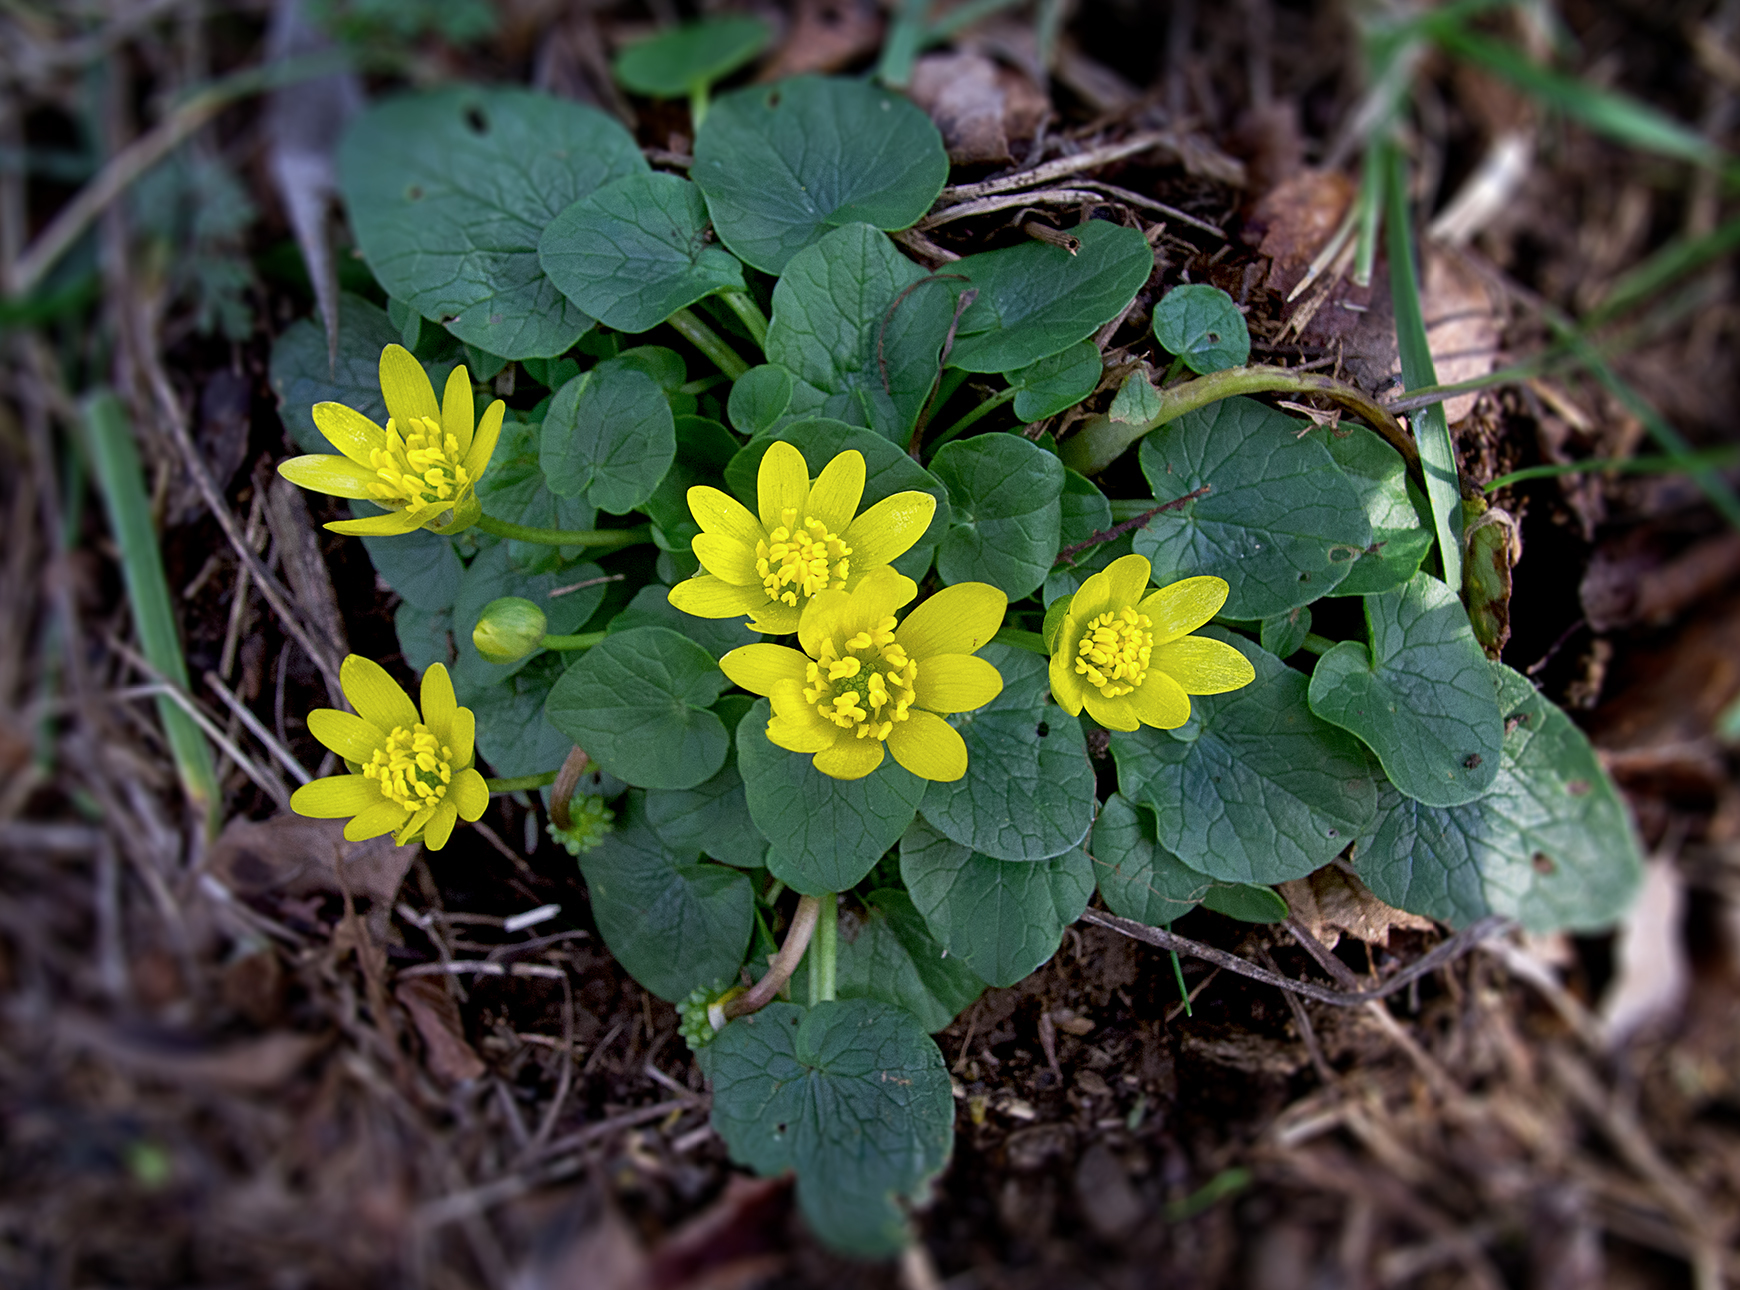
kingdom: Plantae
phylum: Tracheophyta
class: Magnoliopsida
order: Ranunculales
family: Ranunculaceae
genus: Ficaria
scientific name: Ficaria verna
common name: Lesser celandine
